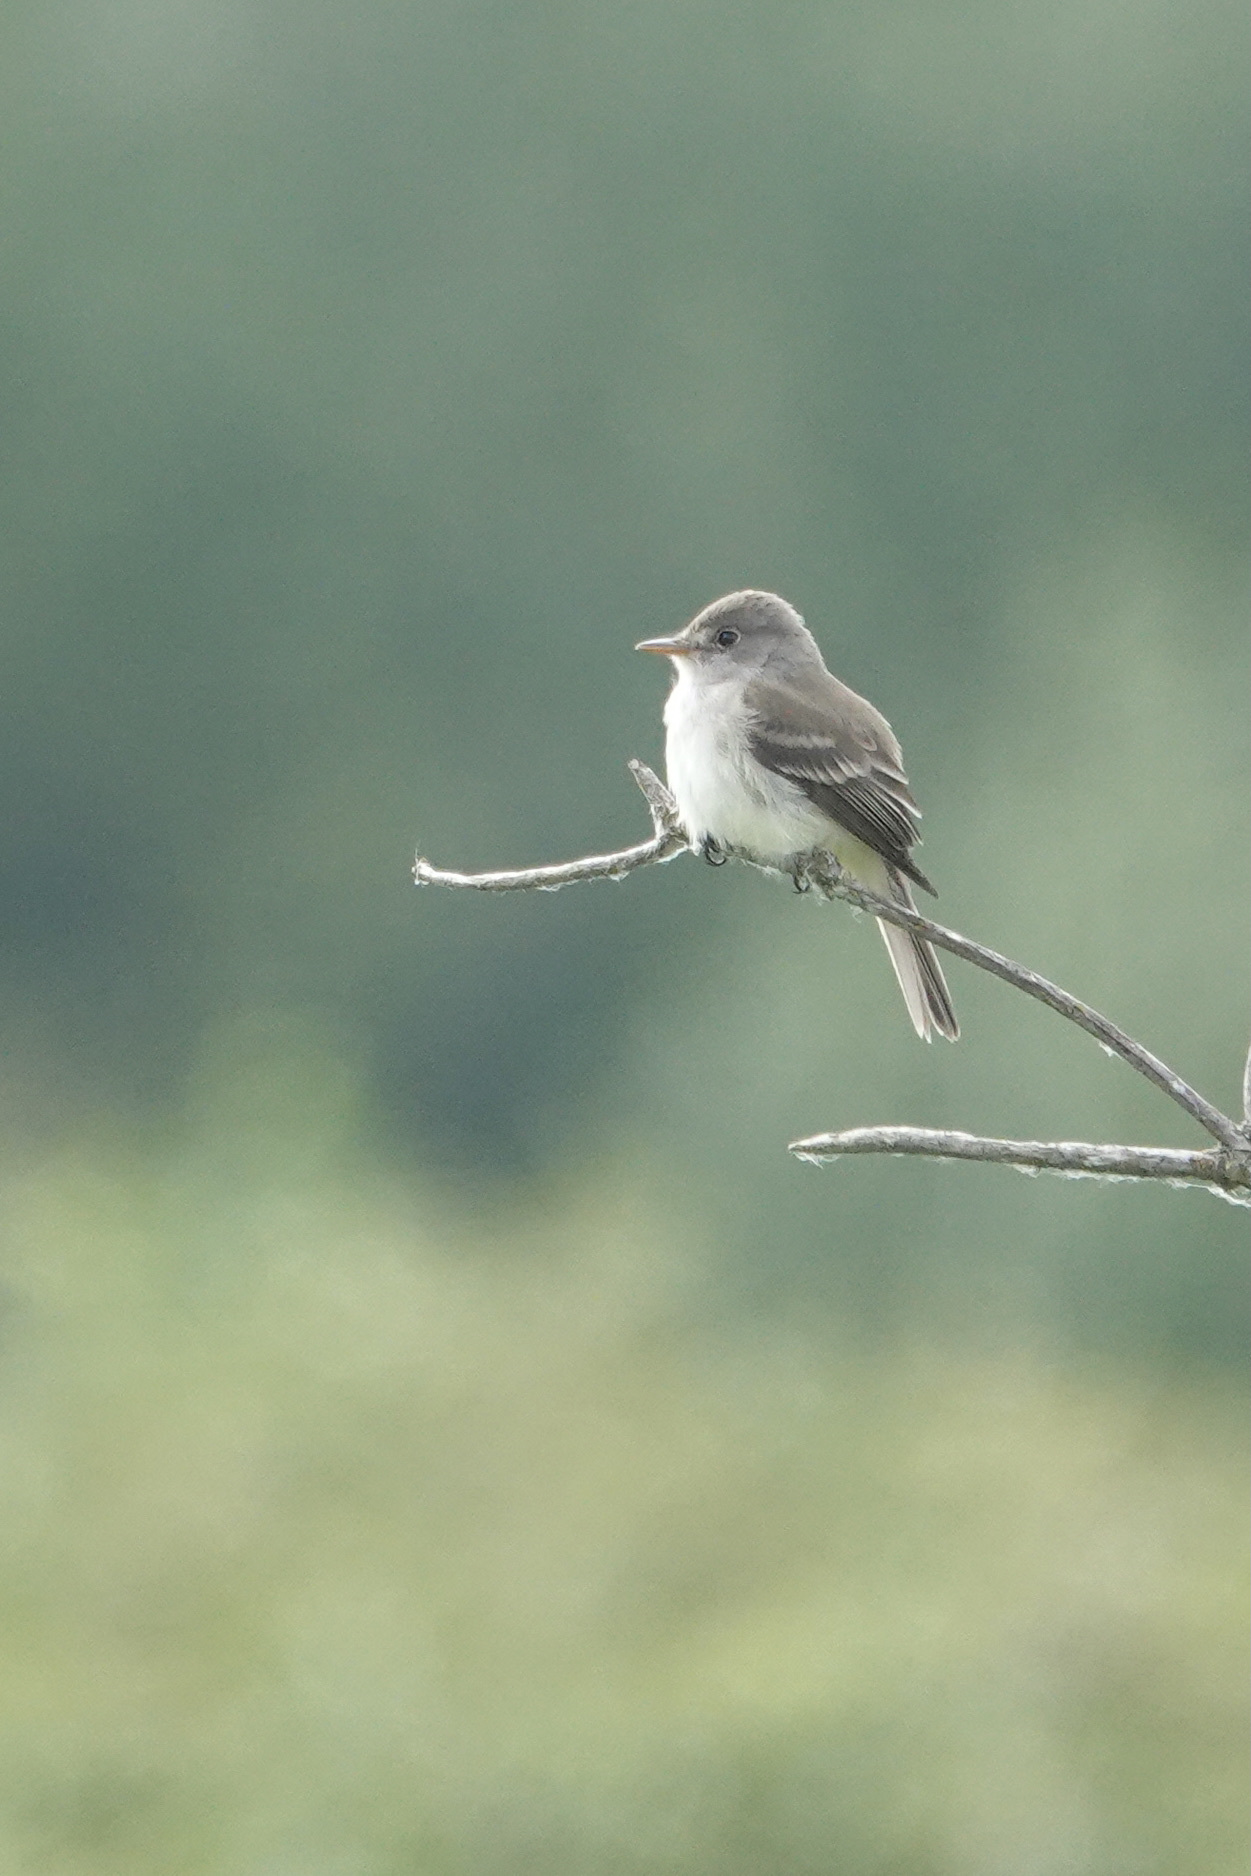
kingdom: Animalia
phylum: Chordata
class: Aves
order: Passeriformes
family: Tyrannidae
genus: Empidonax
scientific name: Empidonax traillii
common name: Willow flycatcher
